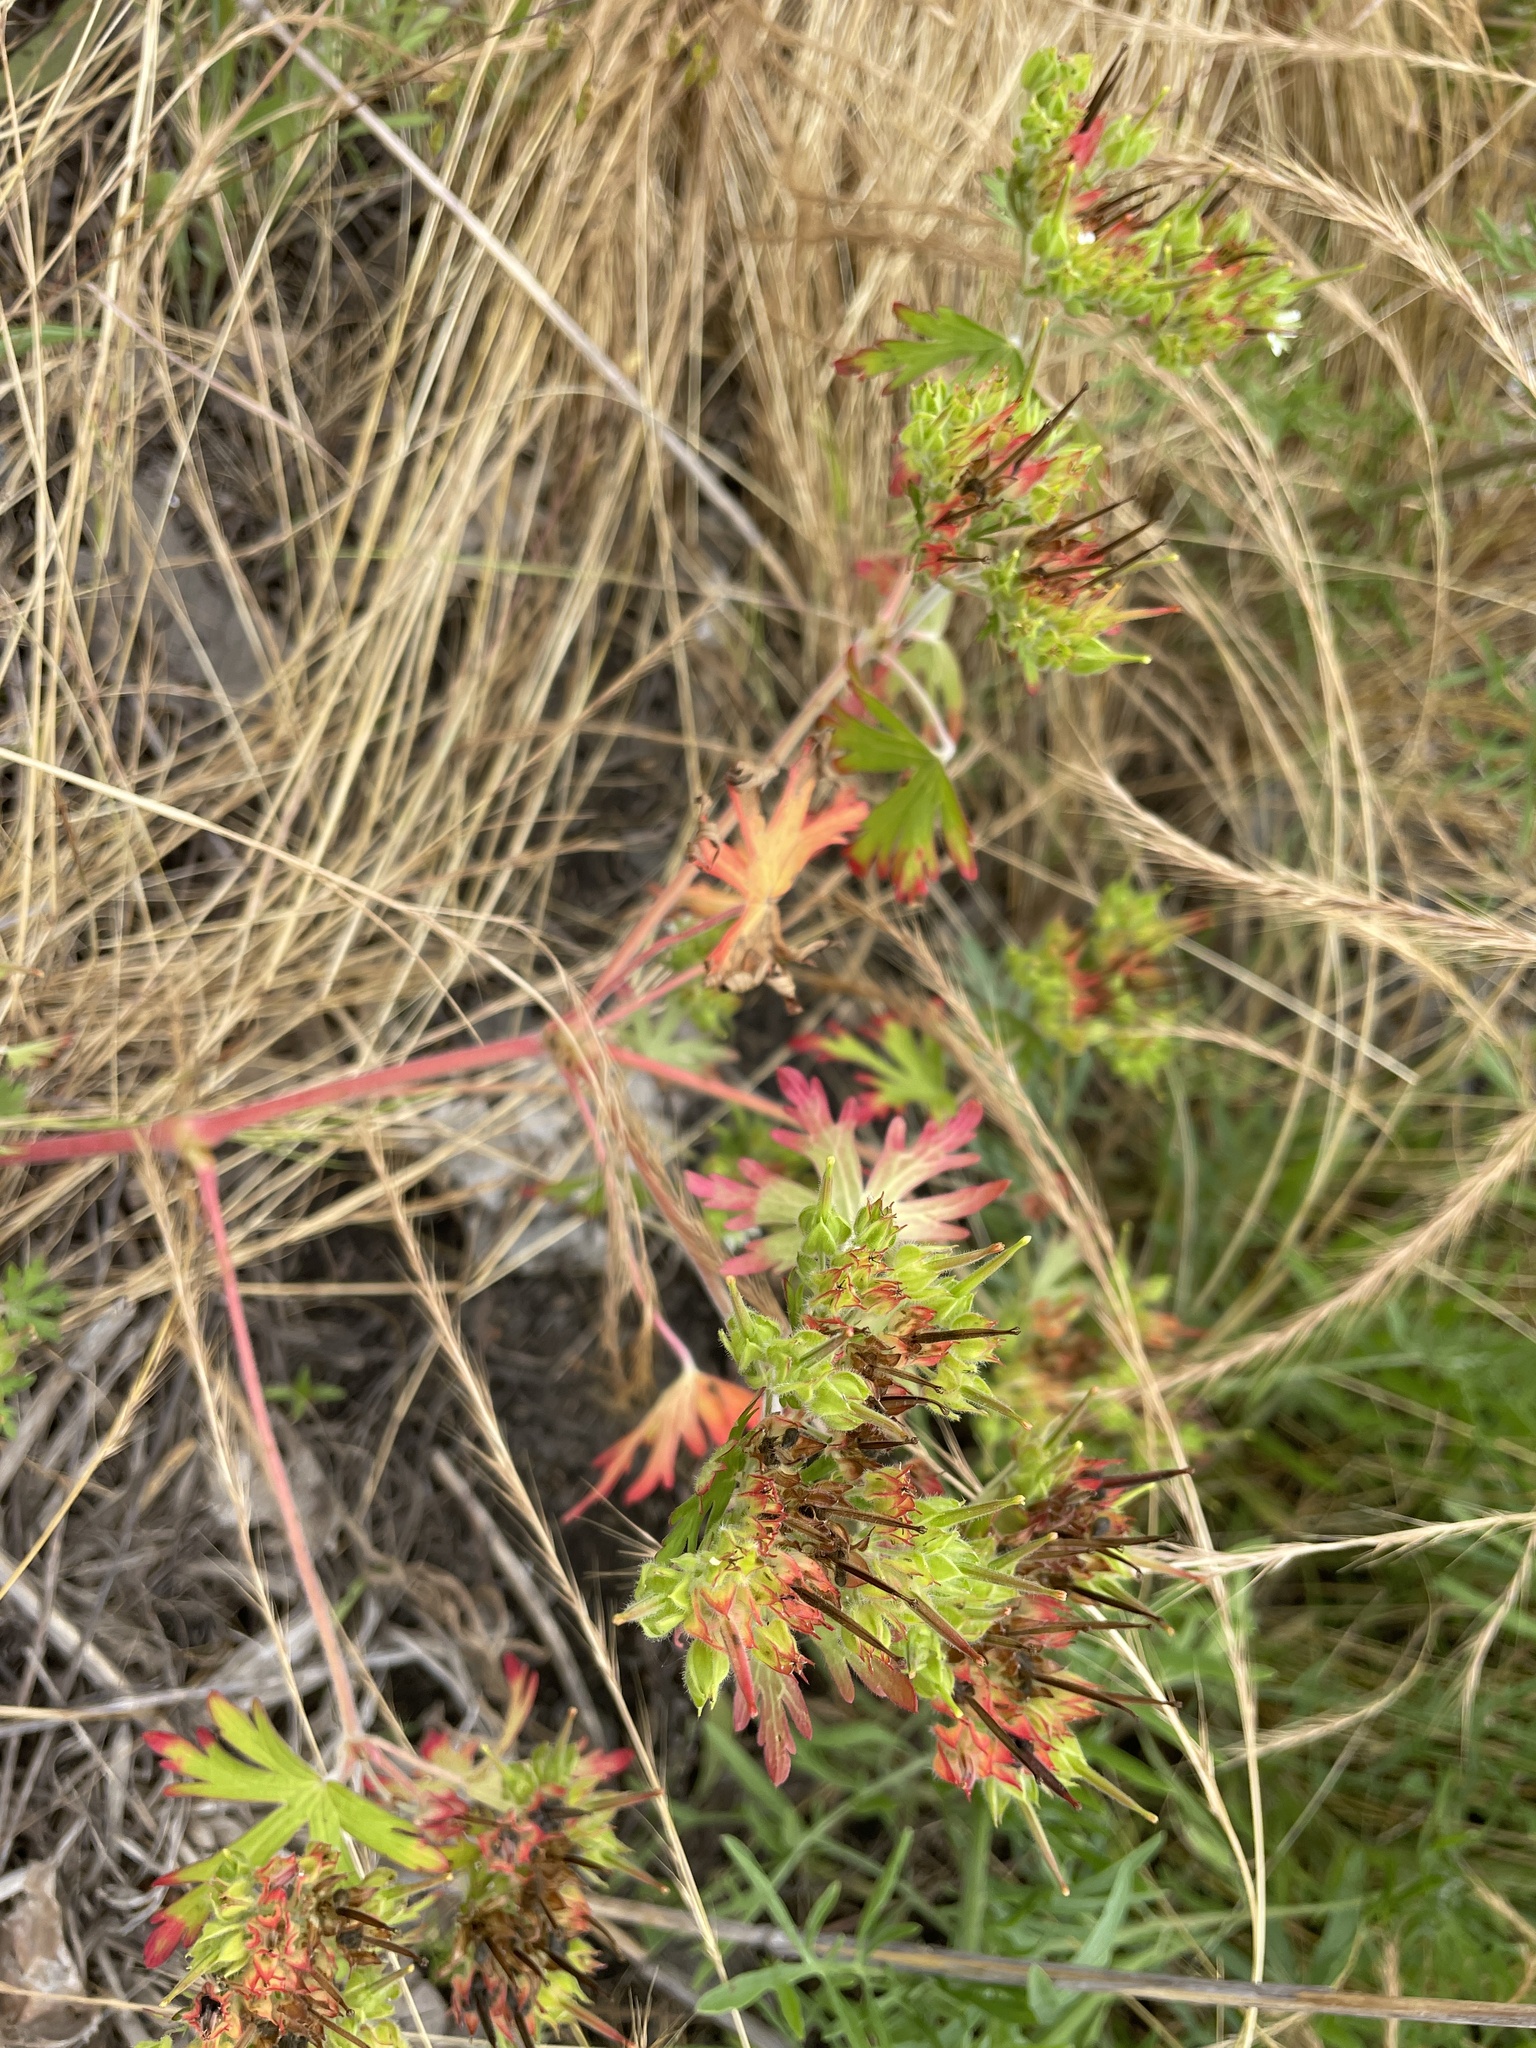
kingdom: Plantae
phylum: Tracheophyta
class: Magnoliopsida
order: Geraniales
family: Geraniaceae
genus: Geranium
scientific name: Geranium carolinianum
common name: Carolina crane's-bill
